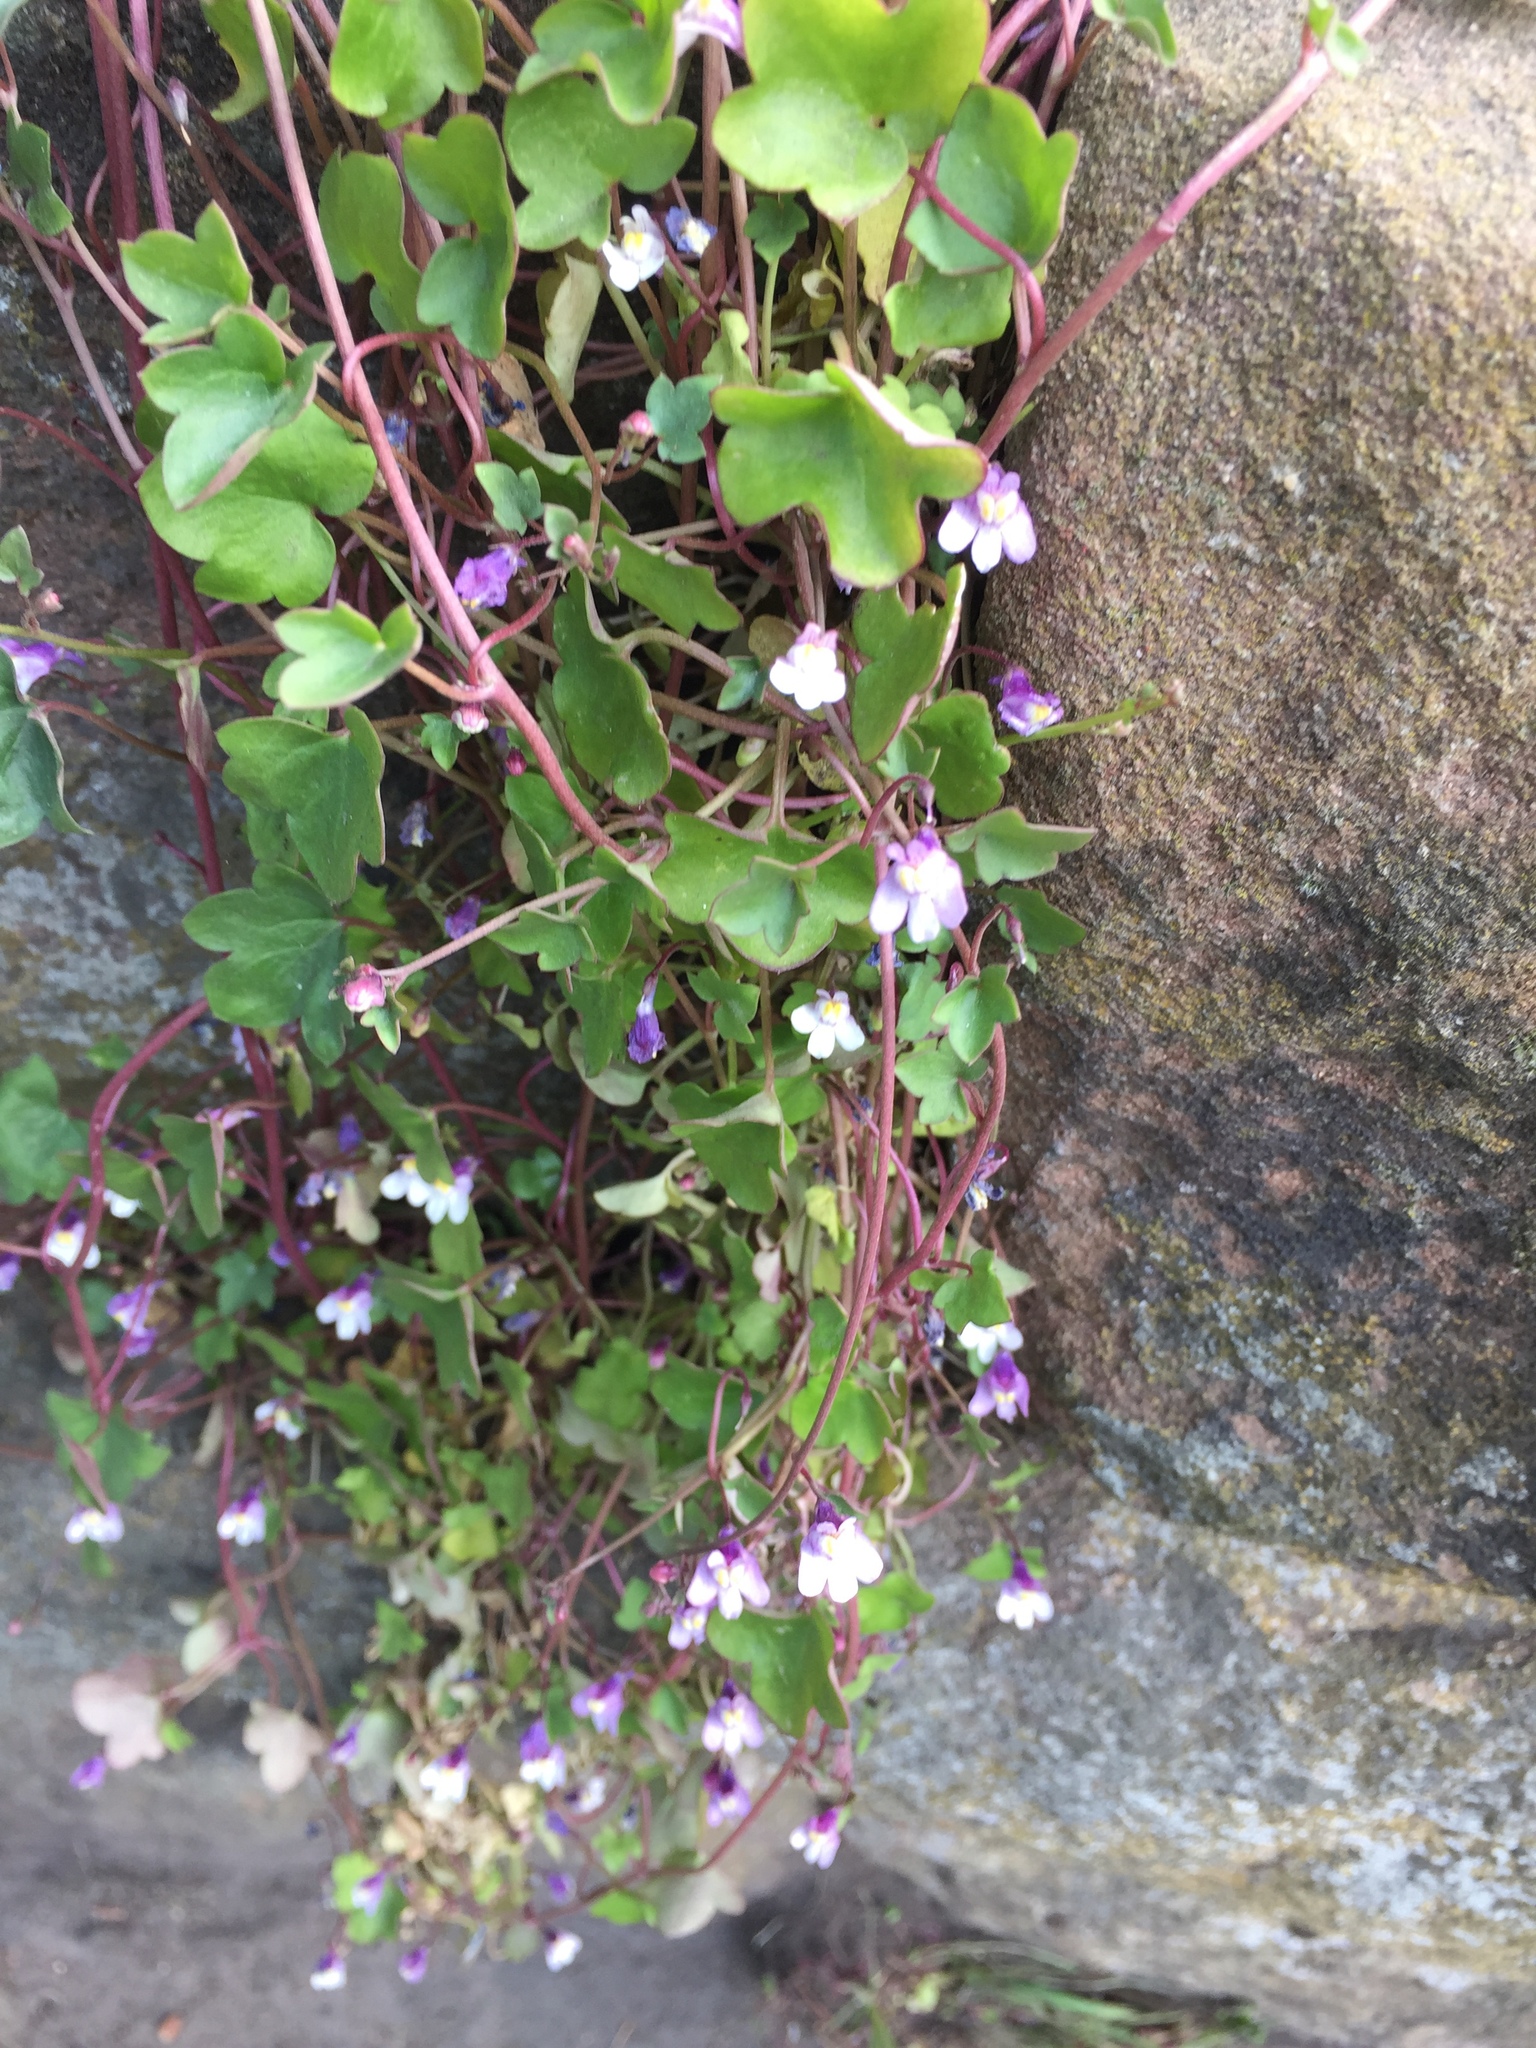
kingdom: Plantae
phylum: Tracheophyta
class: Magnoliopsida
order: Lamiales
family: Plantaginaceae
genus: Cymbalaria
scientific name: Cymbalaria muralis
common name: Ivy-leaved toadflax
